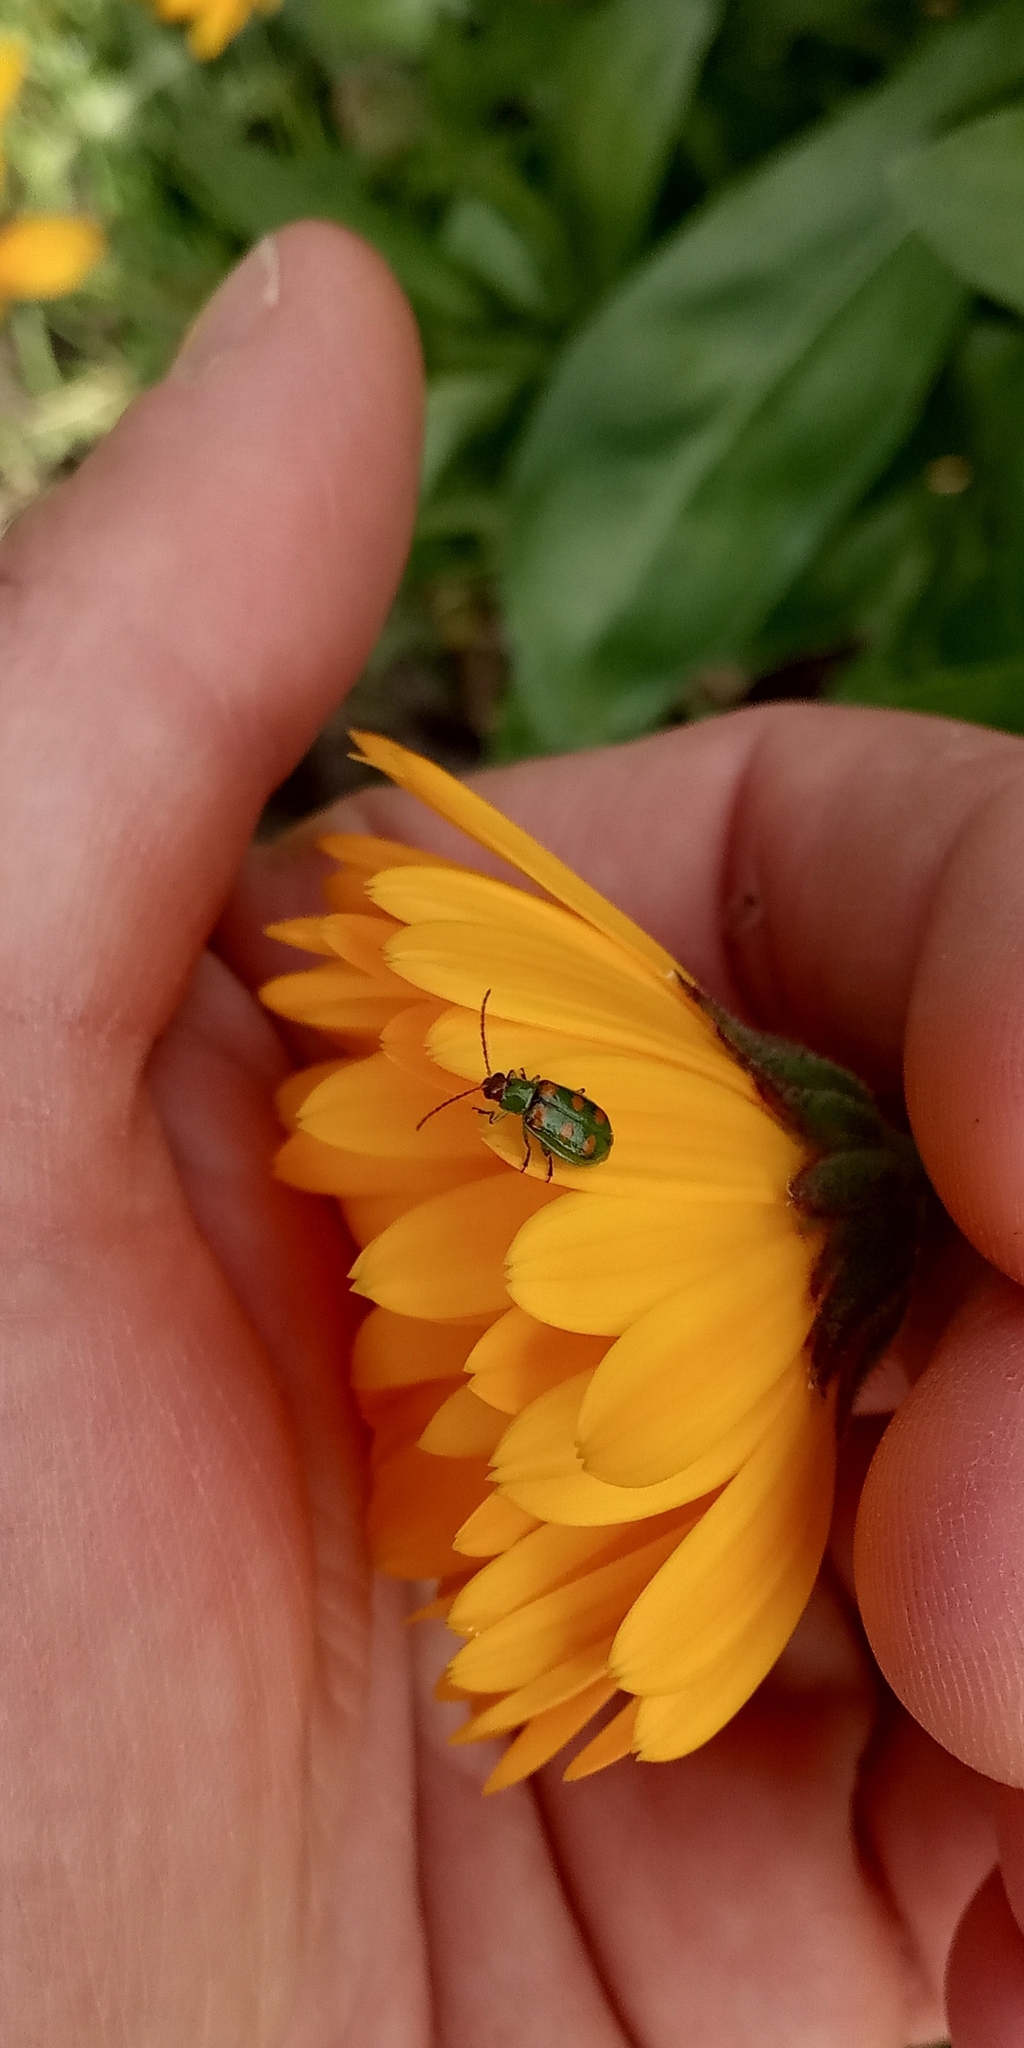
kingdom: Animalia
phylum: Arthropoda
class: Insecta
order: Coleoptera
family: Chrysomelidae
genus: Diabrotica
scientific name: Diabrotica speciosa
